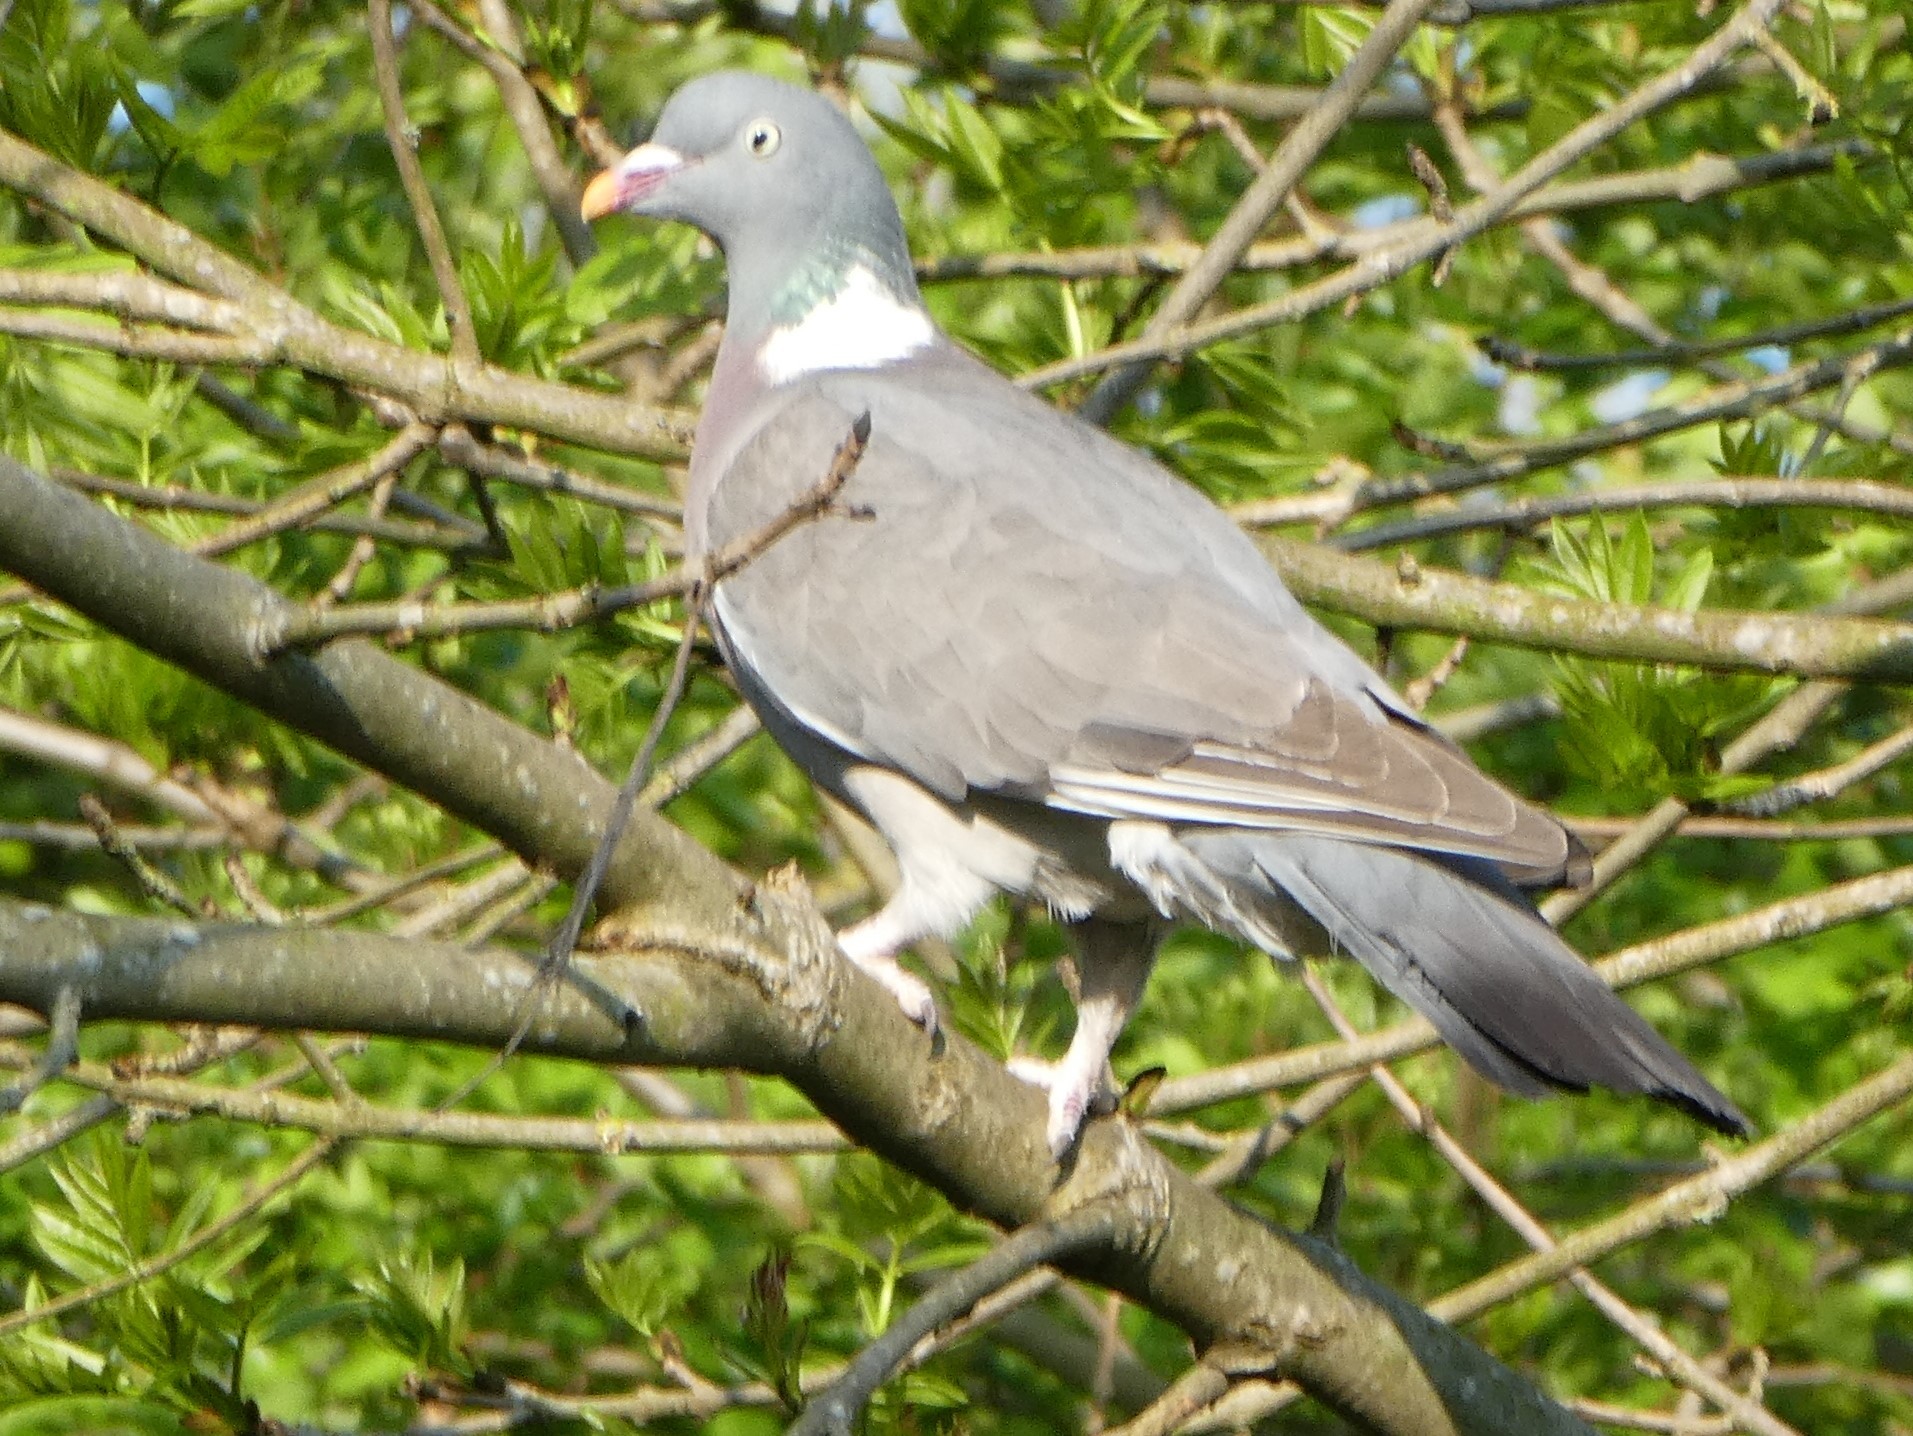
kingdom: Animalia
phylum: Chordata
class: Aves
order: Columbiformes
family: Columbidae
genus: Columba
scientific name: Columba palumbus
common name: Common wood pigeon
